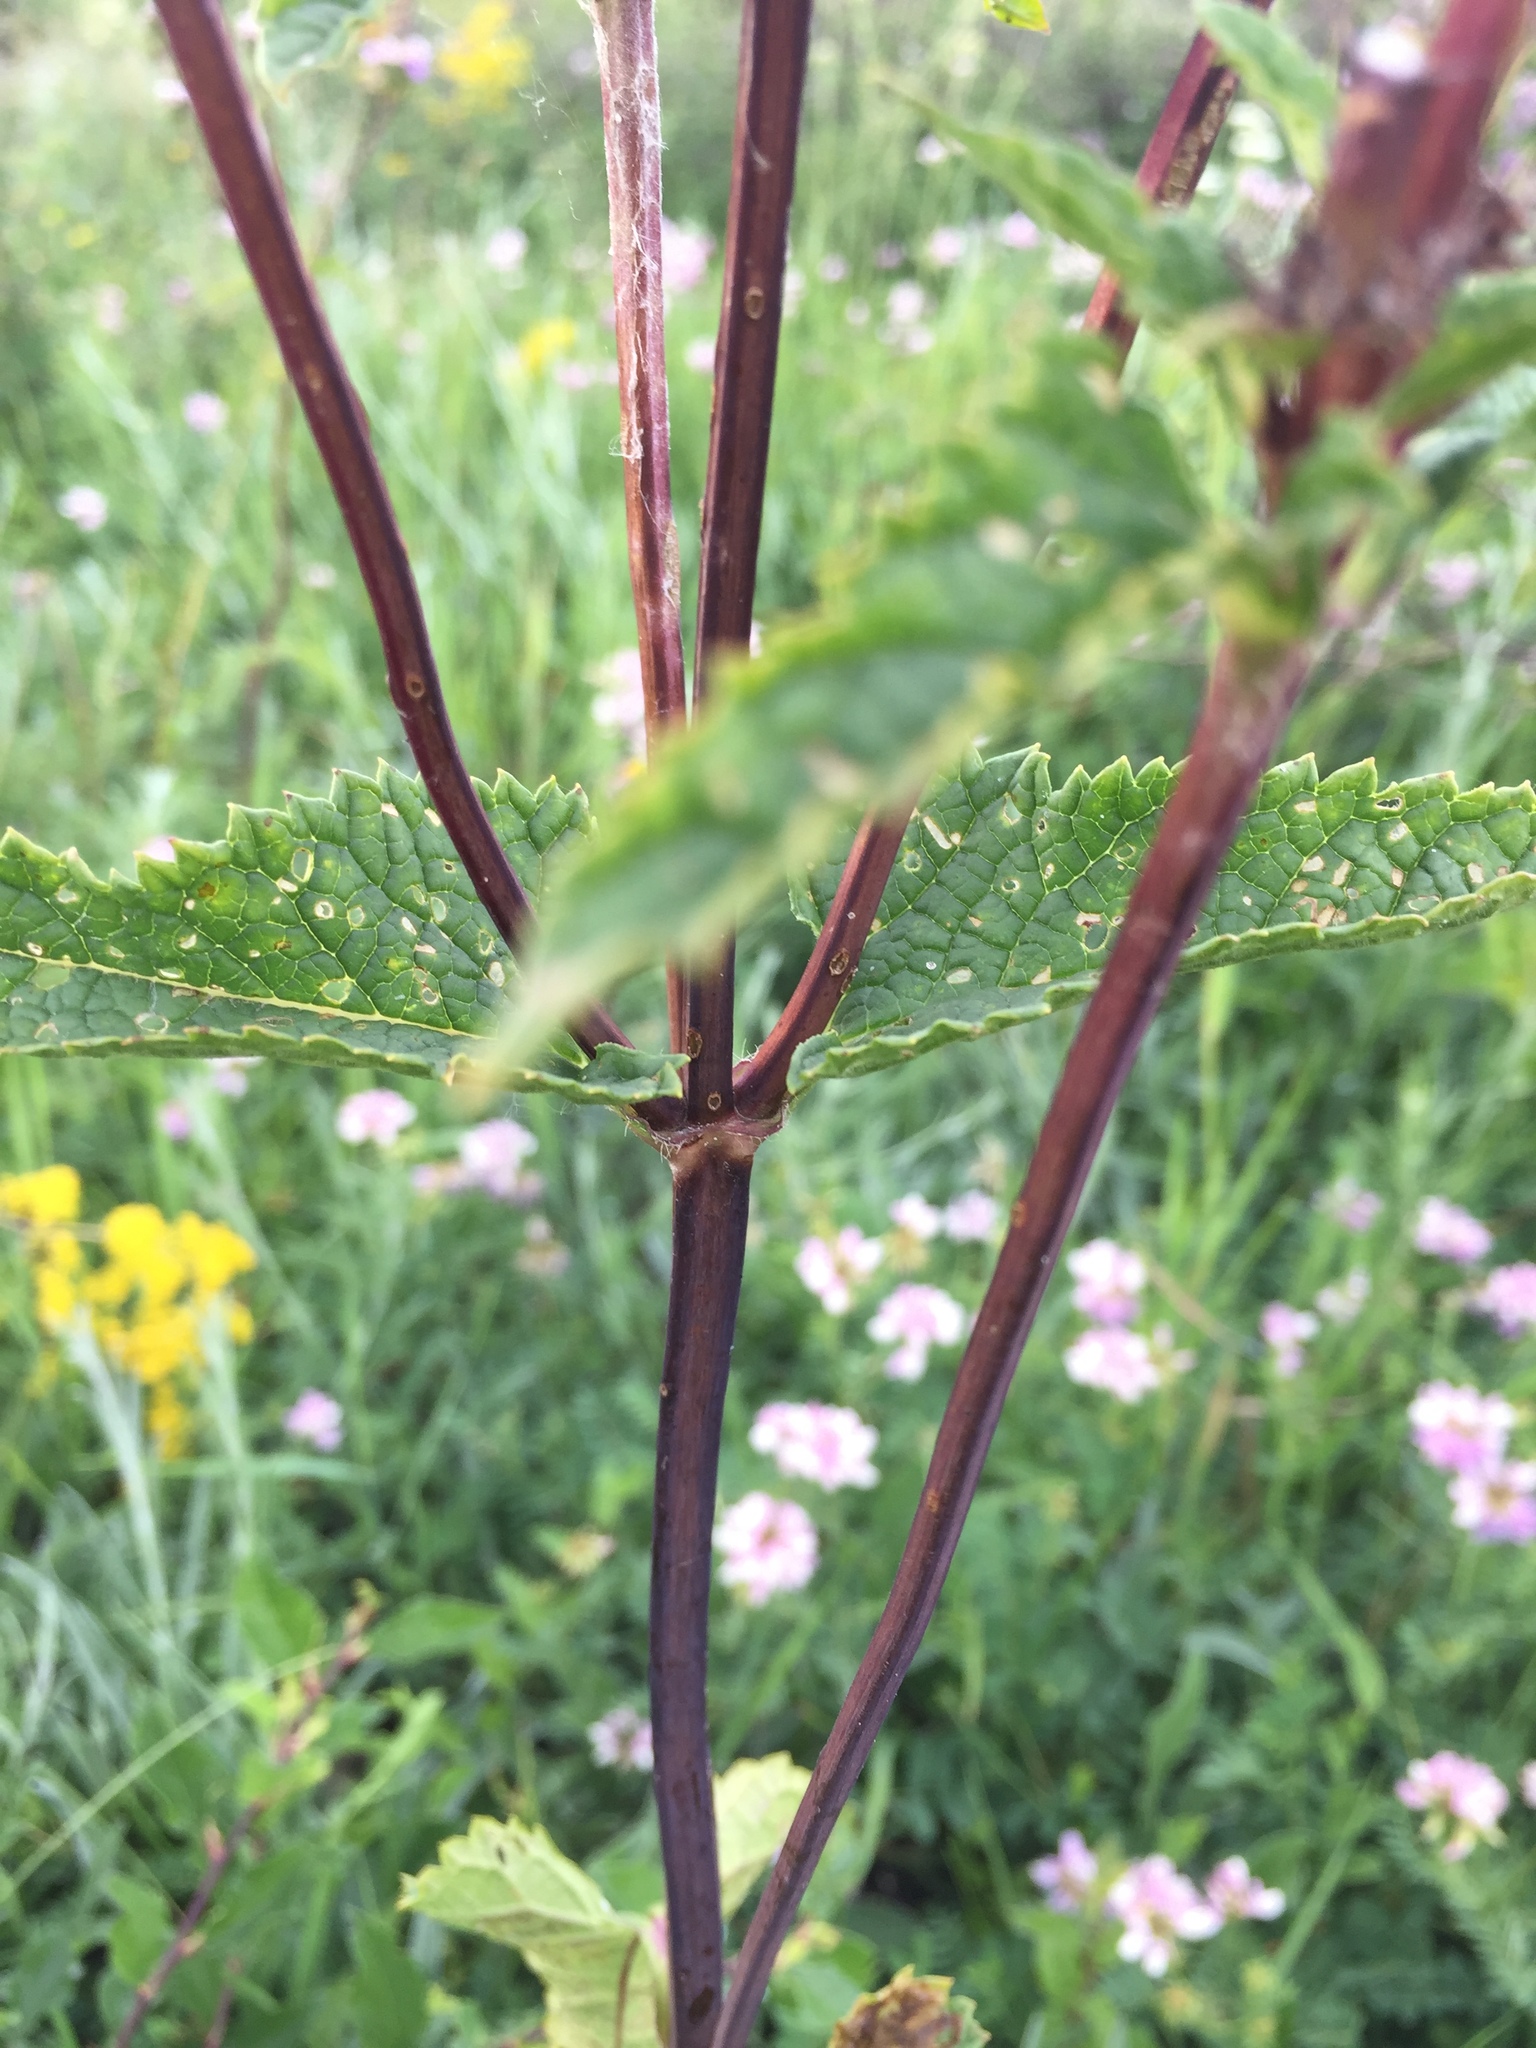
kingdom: Plantae
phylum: Tracheophyta
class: Magnoliopsida
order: Lamiales
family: Lamiaceae
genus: Phlomoides
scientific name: Phlomoides tuberosa
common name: Tuberous jerusalem sage
